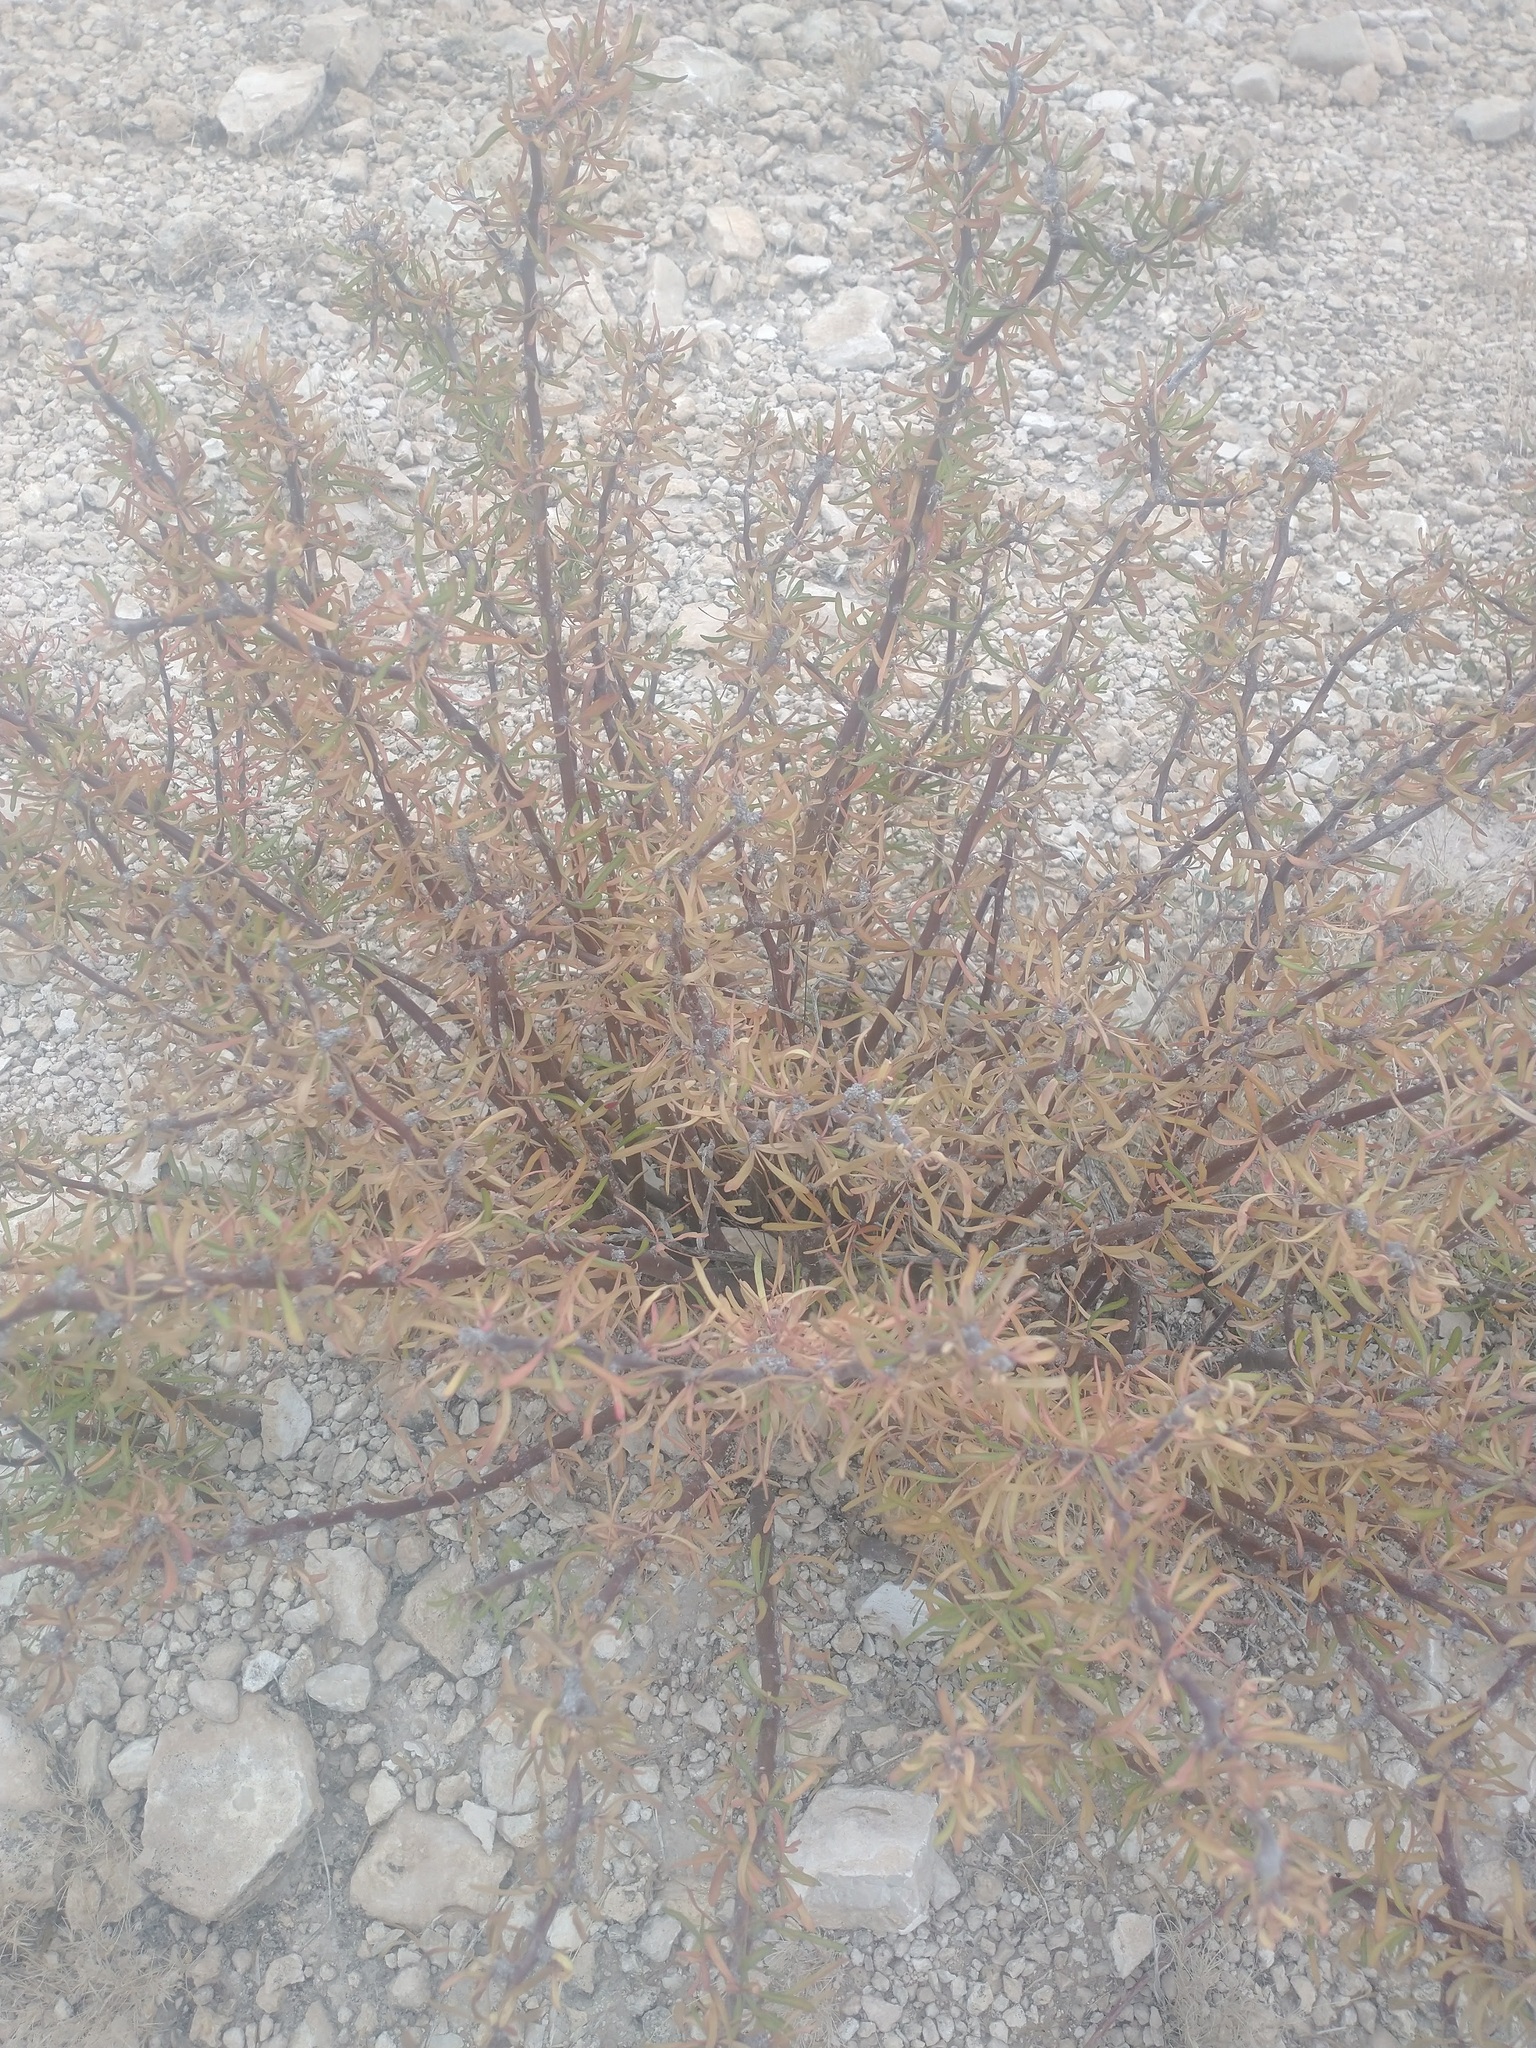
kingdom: Plantae
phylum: Tracheophyta
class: Magnoliopsida
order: Malpighiales
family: Euphorbiaceae
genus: Jatropha
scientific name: Jatropha dioica
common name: Leatherstem
